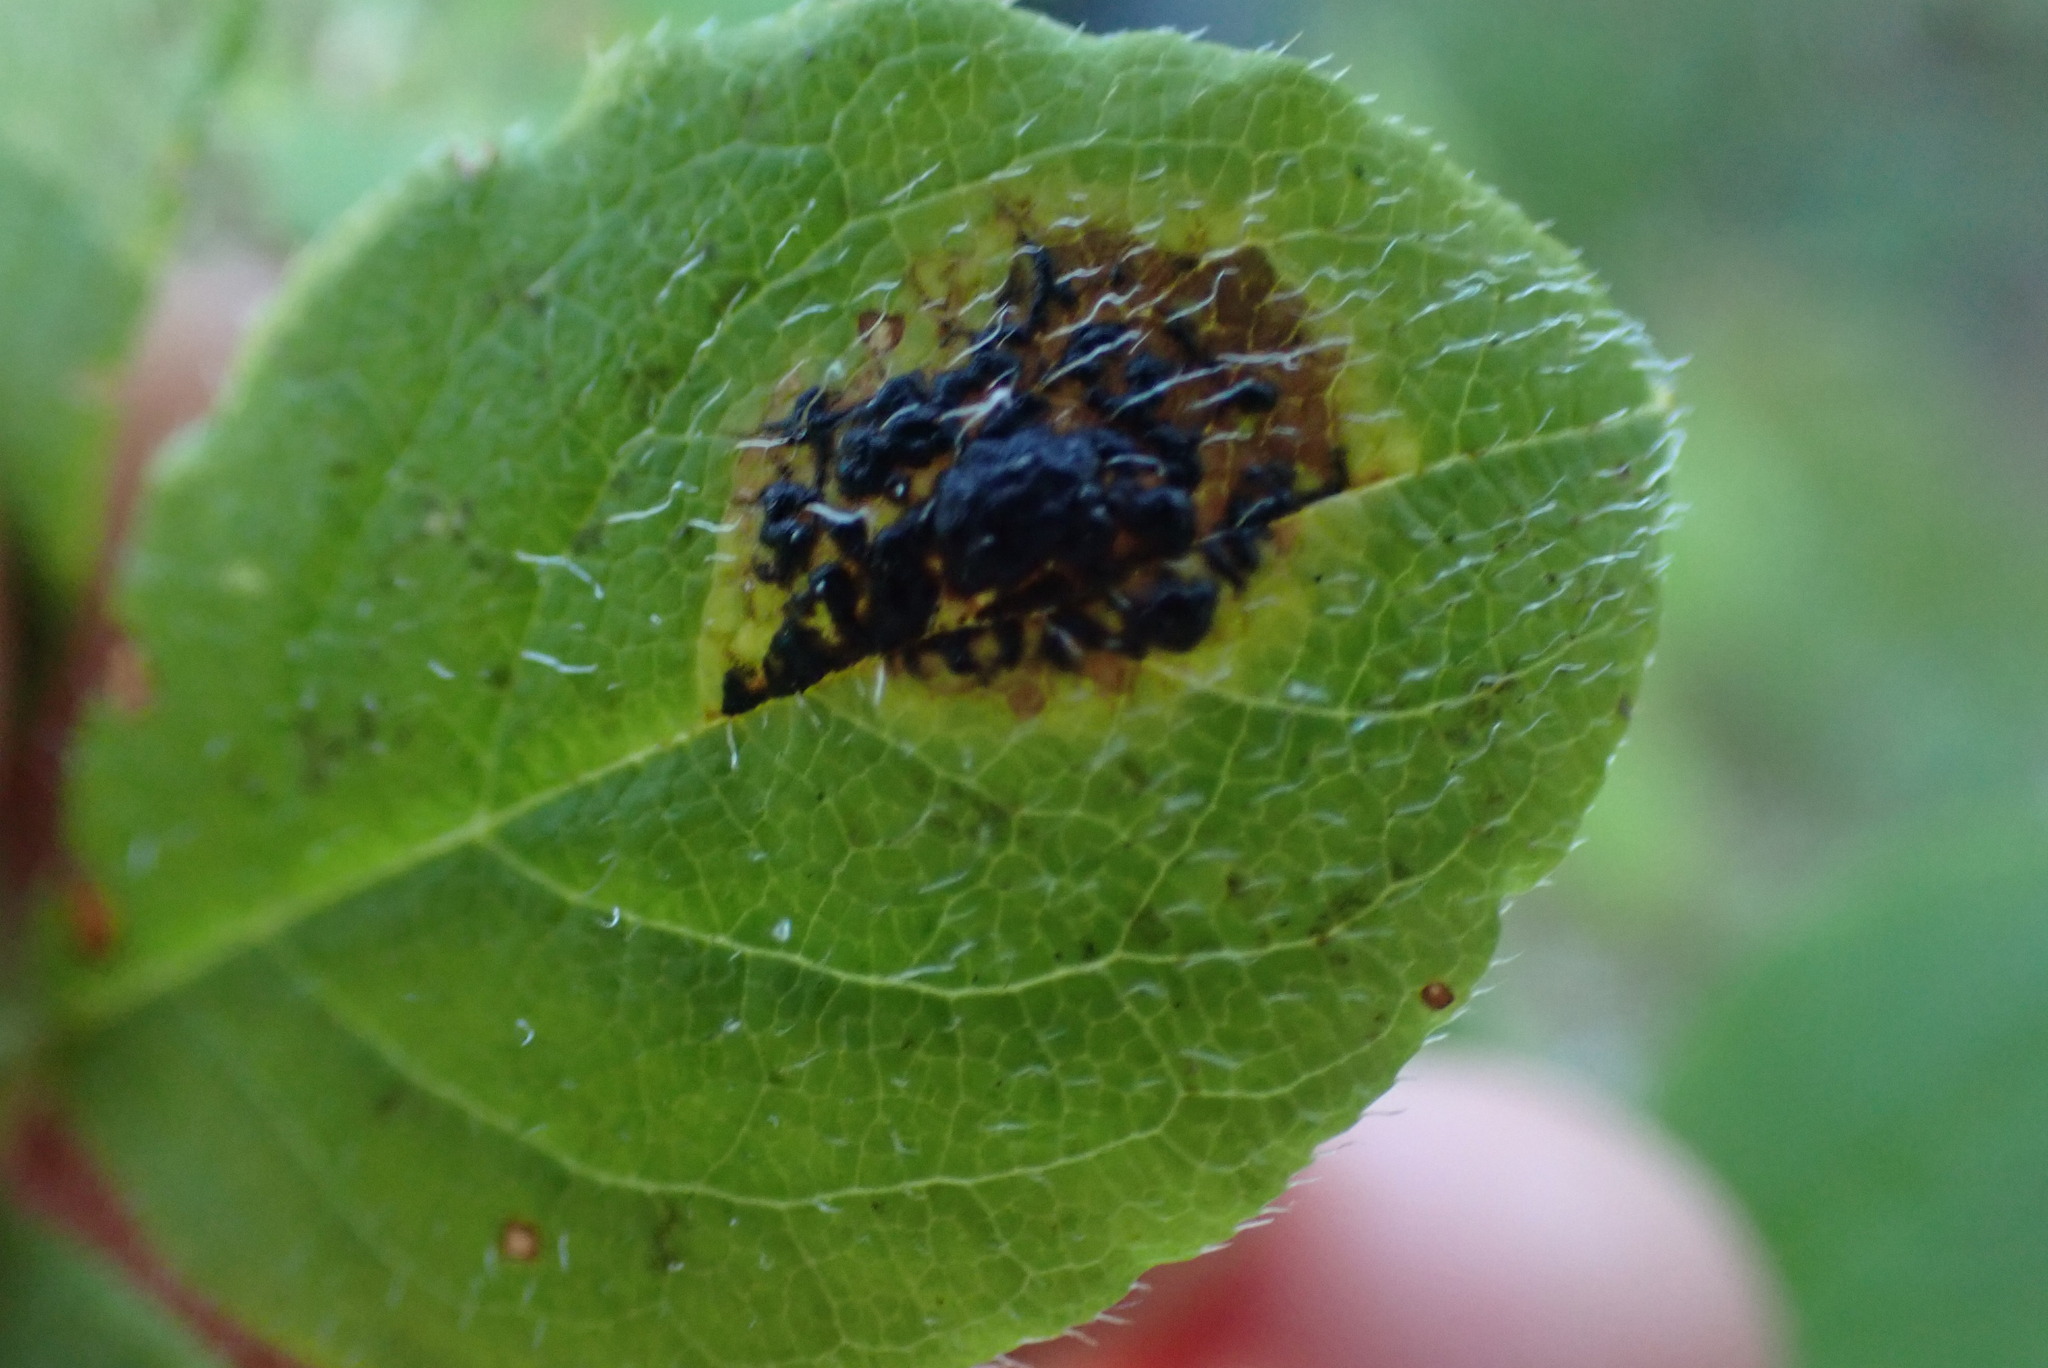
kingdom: Fungi
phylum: Ascomycota
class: Leotiomycetes
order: Rhytismatales
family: Rhytismataceae
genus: Rhytisma
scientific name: Rhytisma
